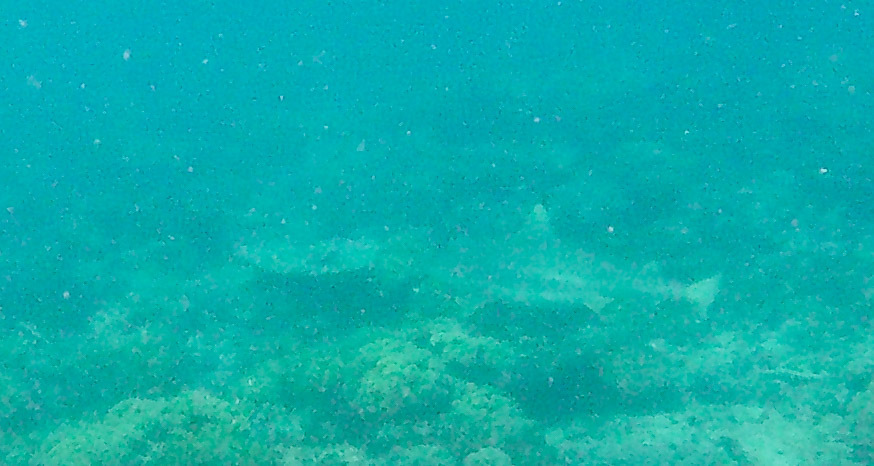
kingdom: Animalia
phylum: Chordata
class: Elasmobranchii
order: Carcharhiniformes
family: Carcharhinidae
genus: Carcharhinus
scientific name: Carcharhinus melanopterus
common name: Blacktip reef shark
